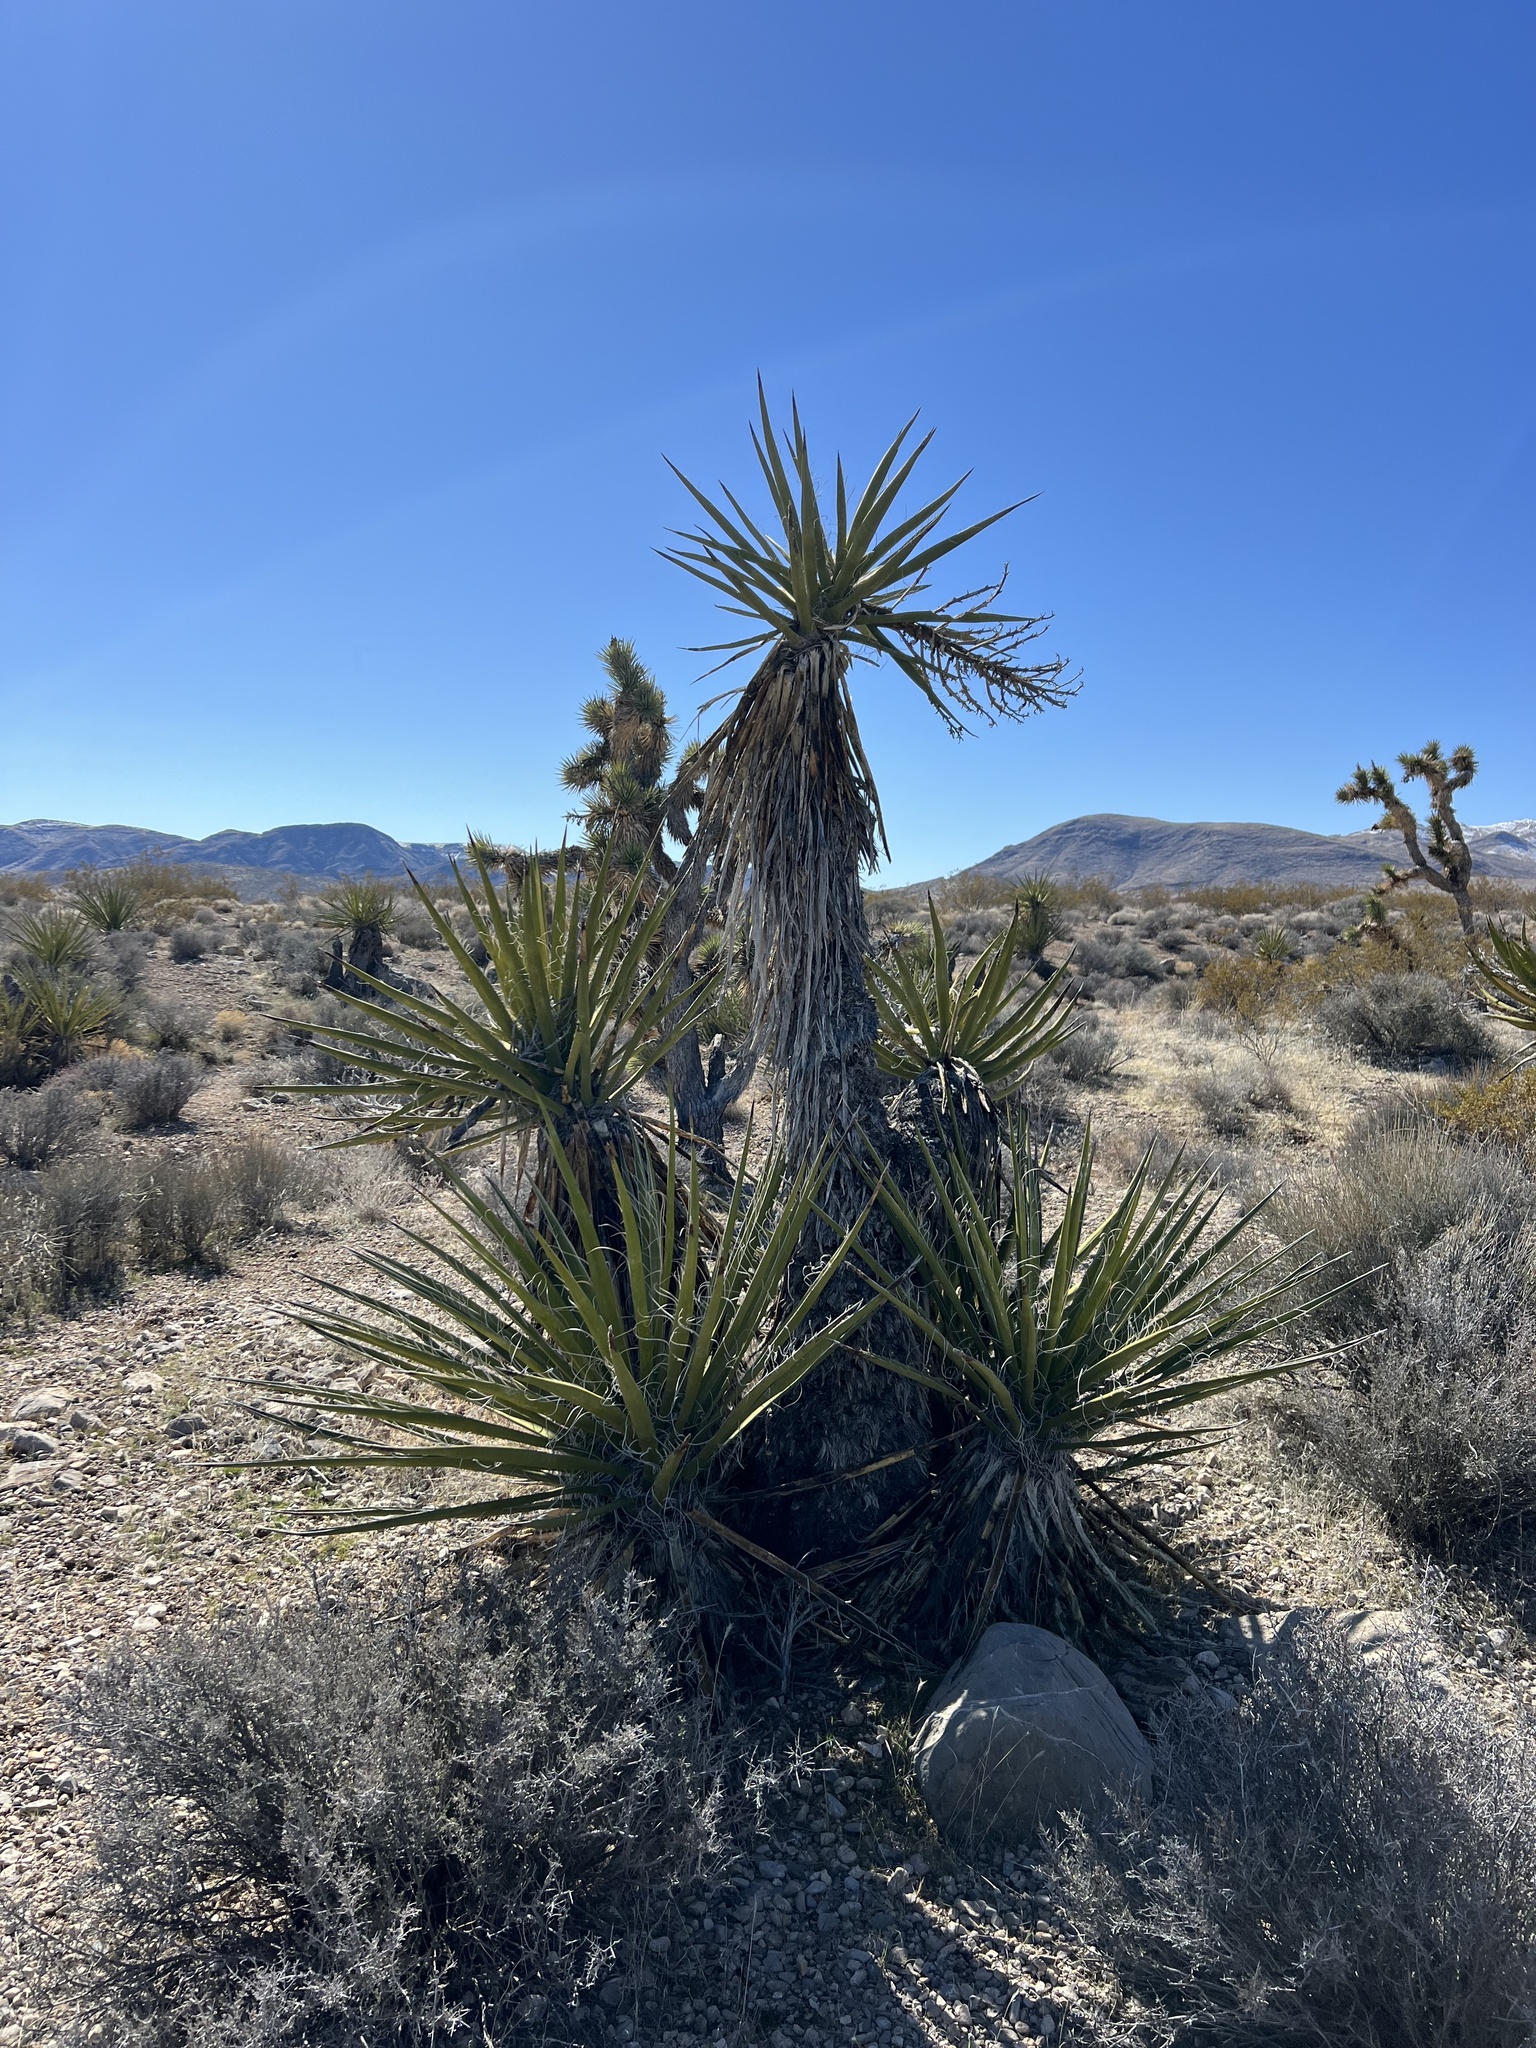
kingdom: Plantae
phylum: Tracheophyta
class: Liliopsida
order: Asparagales
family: Asparagaceae
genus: Yucca
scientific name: Yucca schidigera
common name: Mojave yucca
